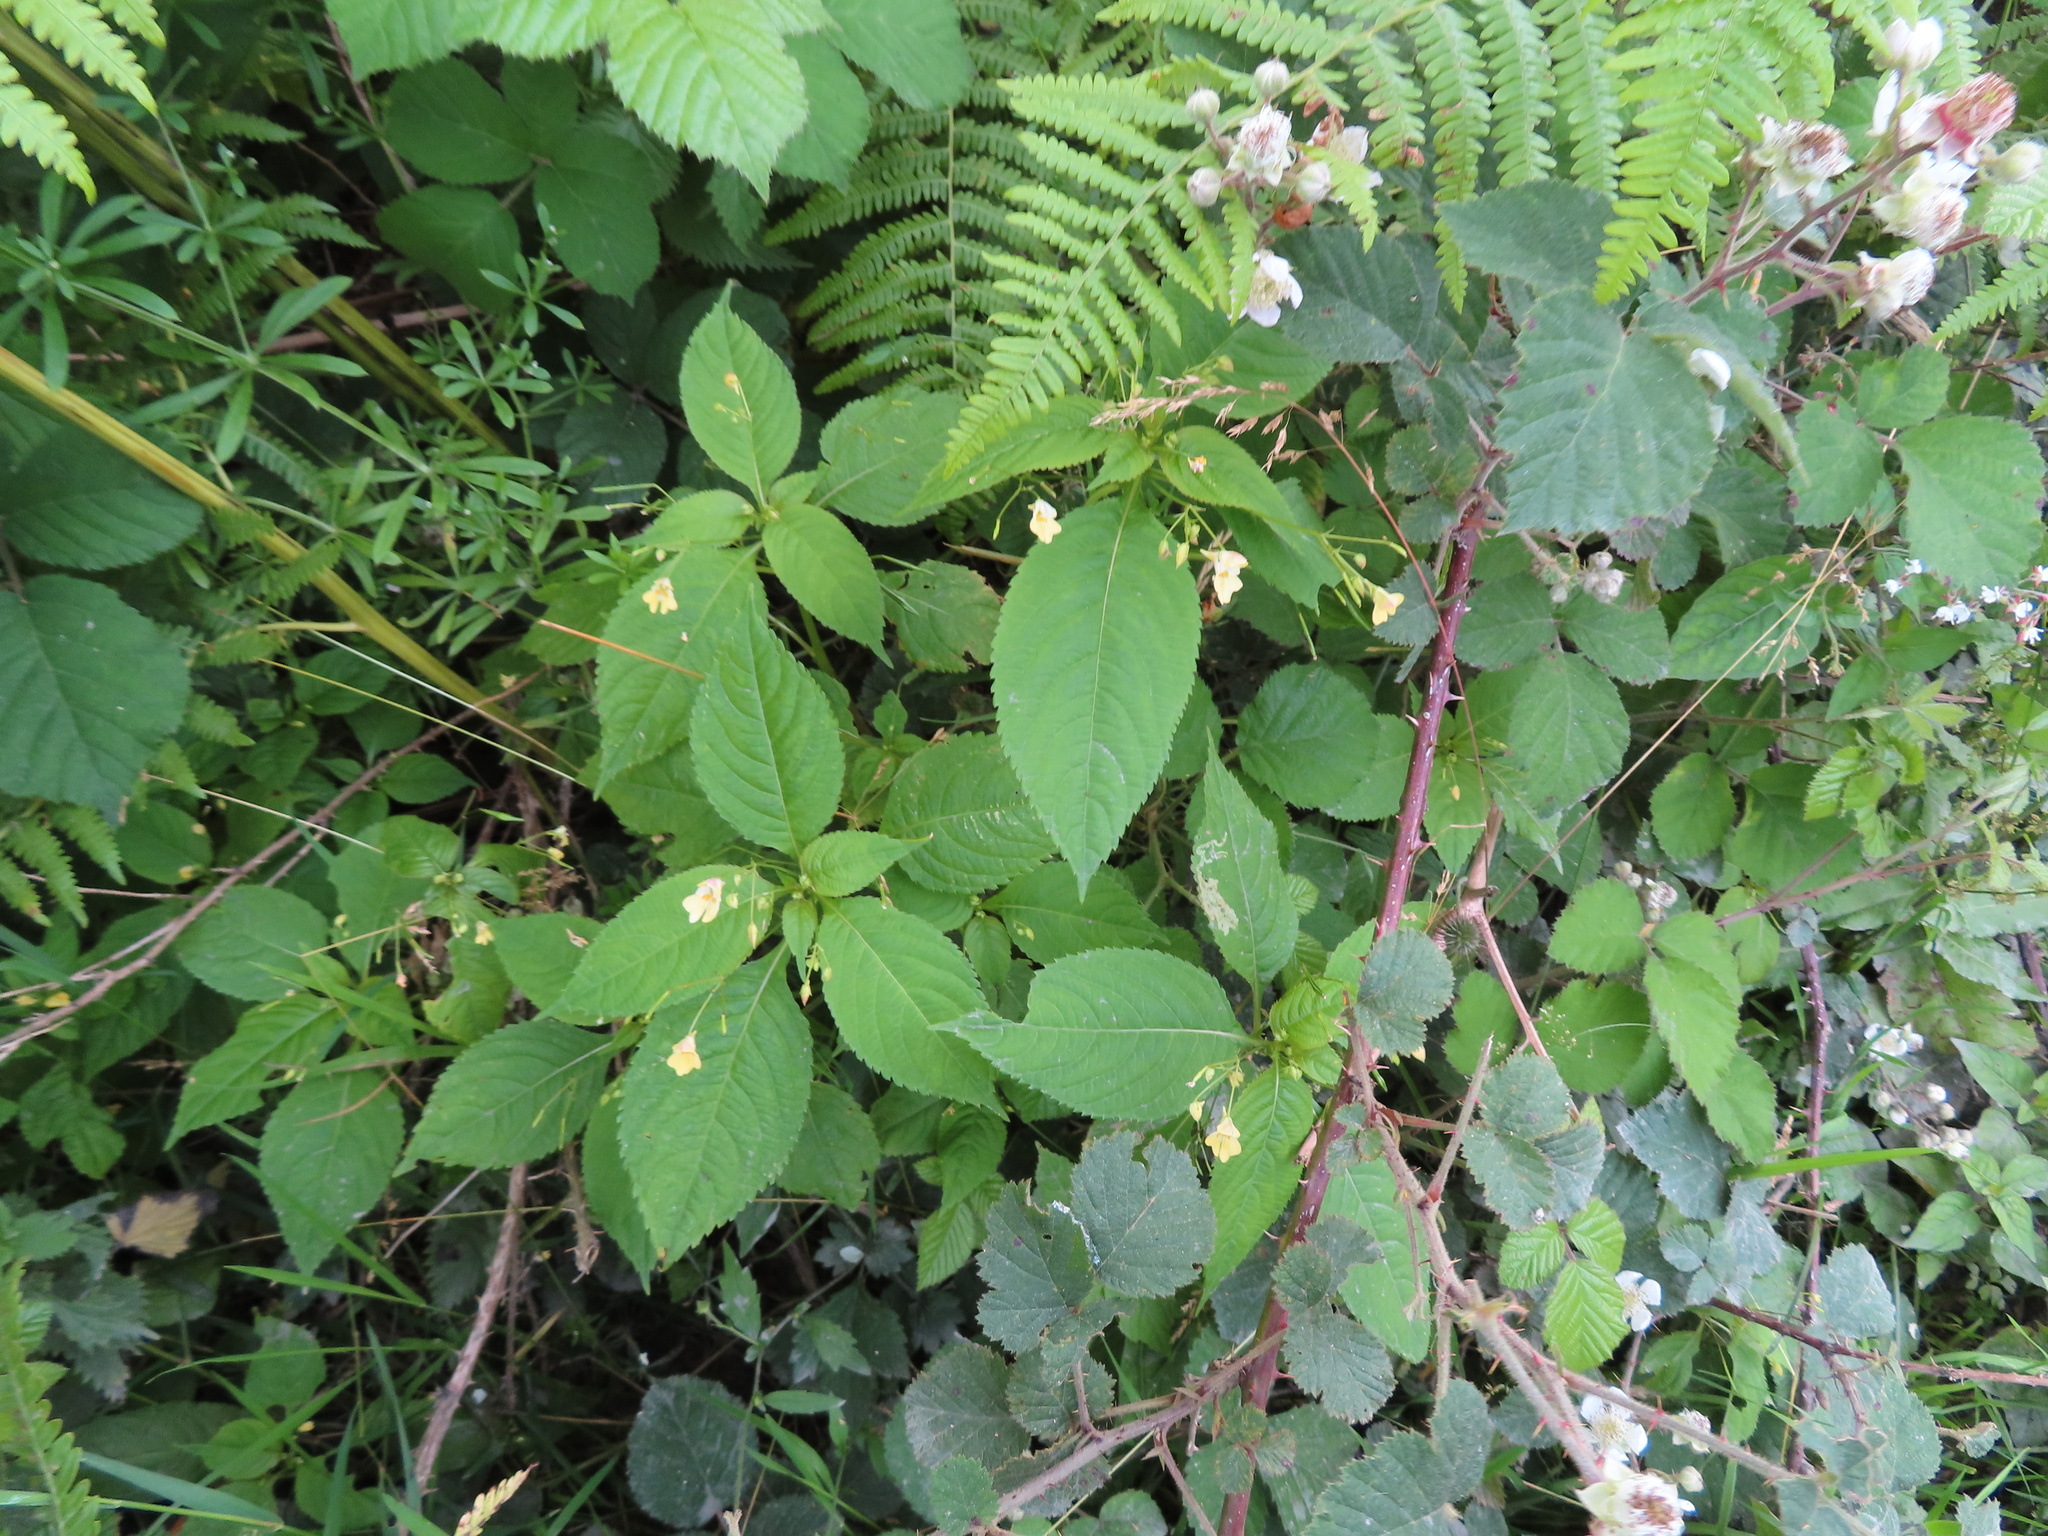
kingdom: Plantae
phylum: Tracheophyta
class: Magnoliopsida
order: Ericales
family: Balsaminaceae
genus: Impatiens
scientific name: Impatiens parviflora
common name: Small balsam
